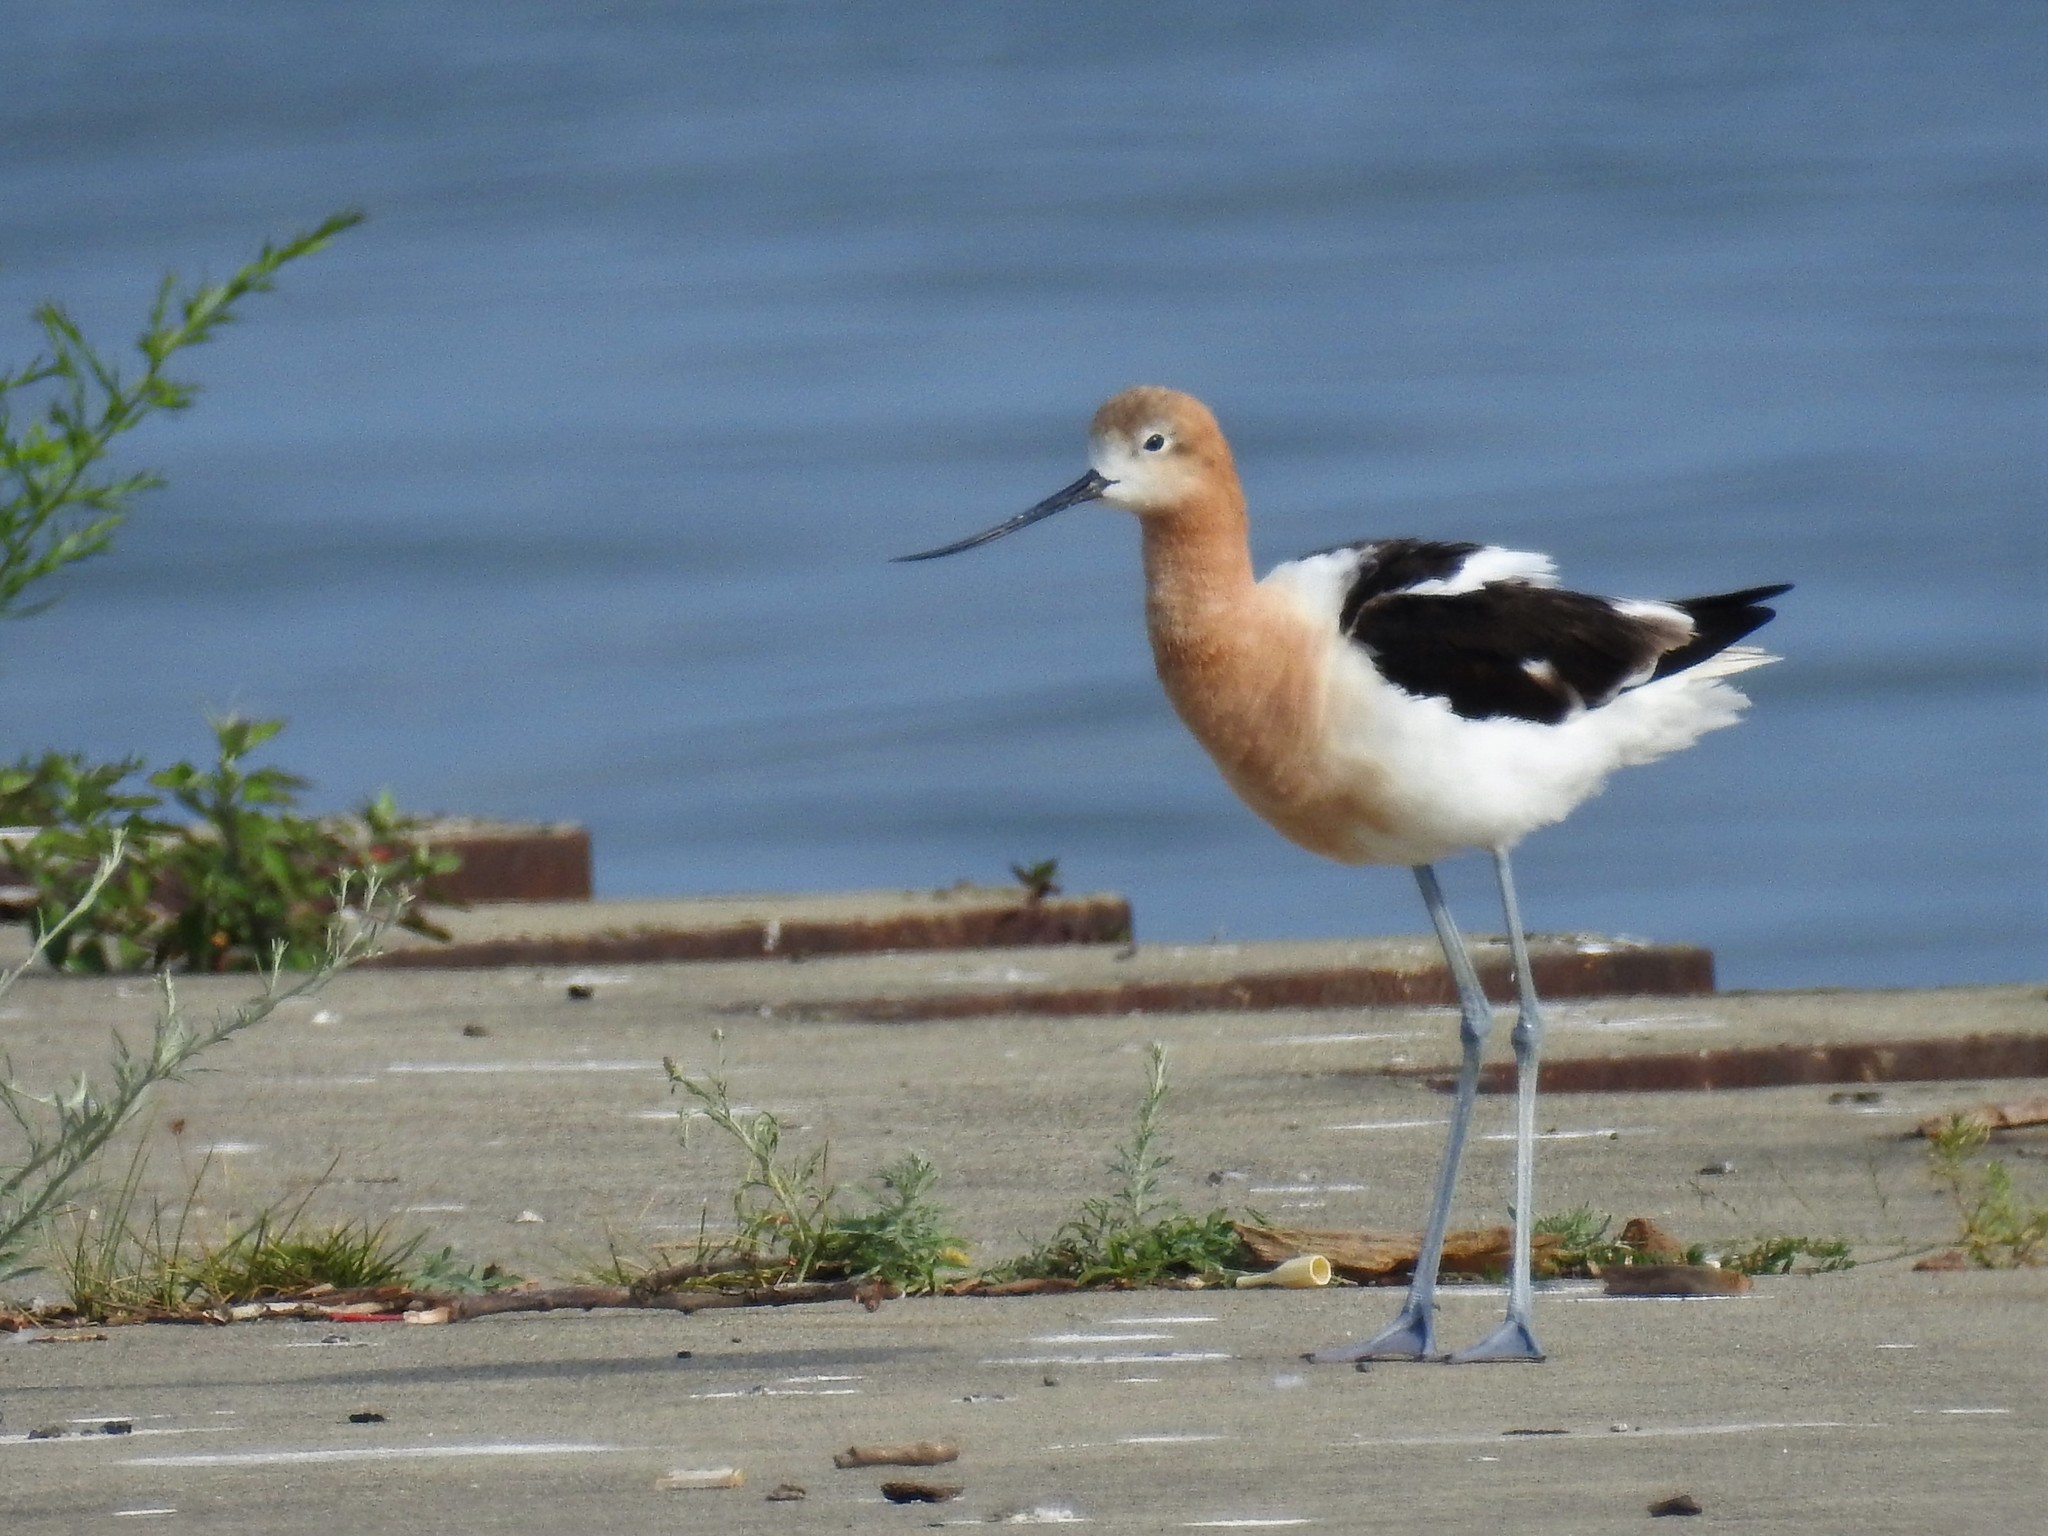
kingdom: Animalia
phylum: Chordata
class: Aves
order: Charadriiformes
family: Recurvirostridae
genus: Recurvirostra
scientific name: Recurvirostra americana
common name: American avocet
